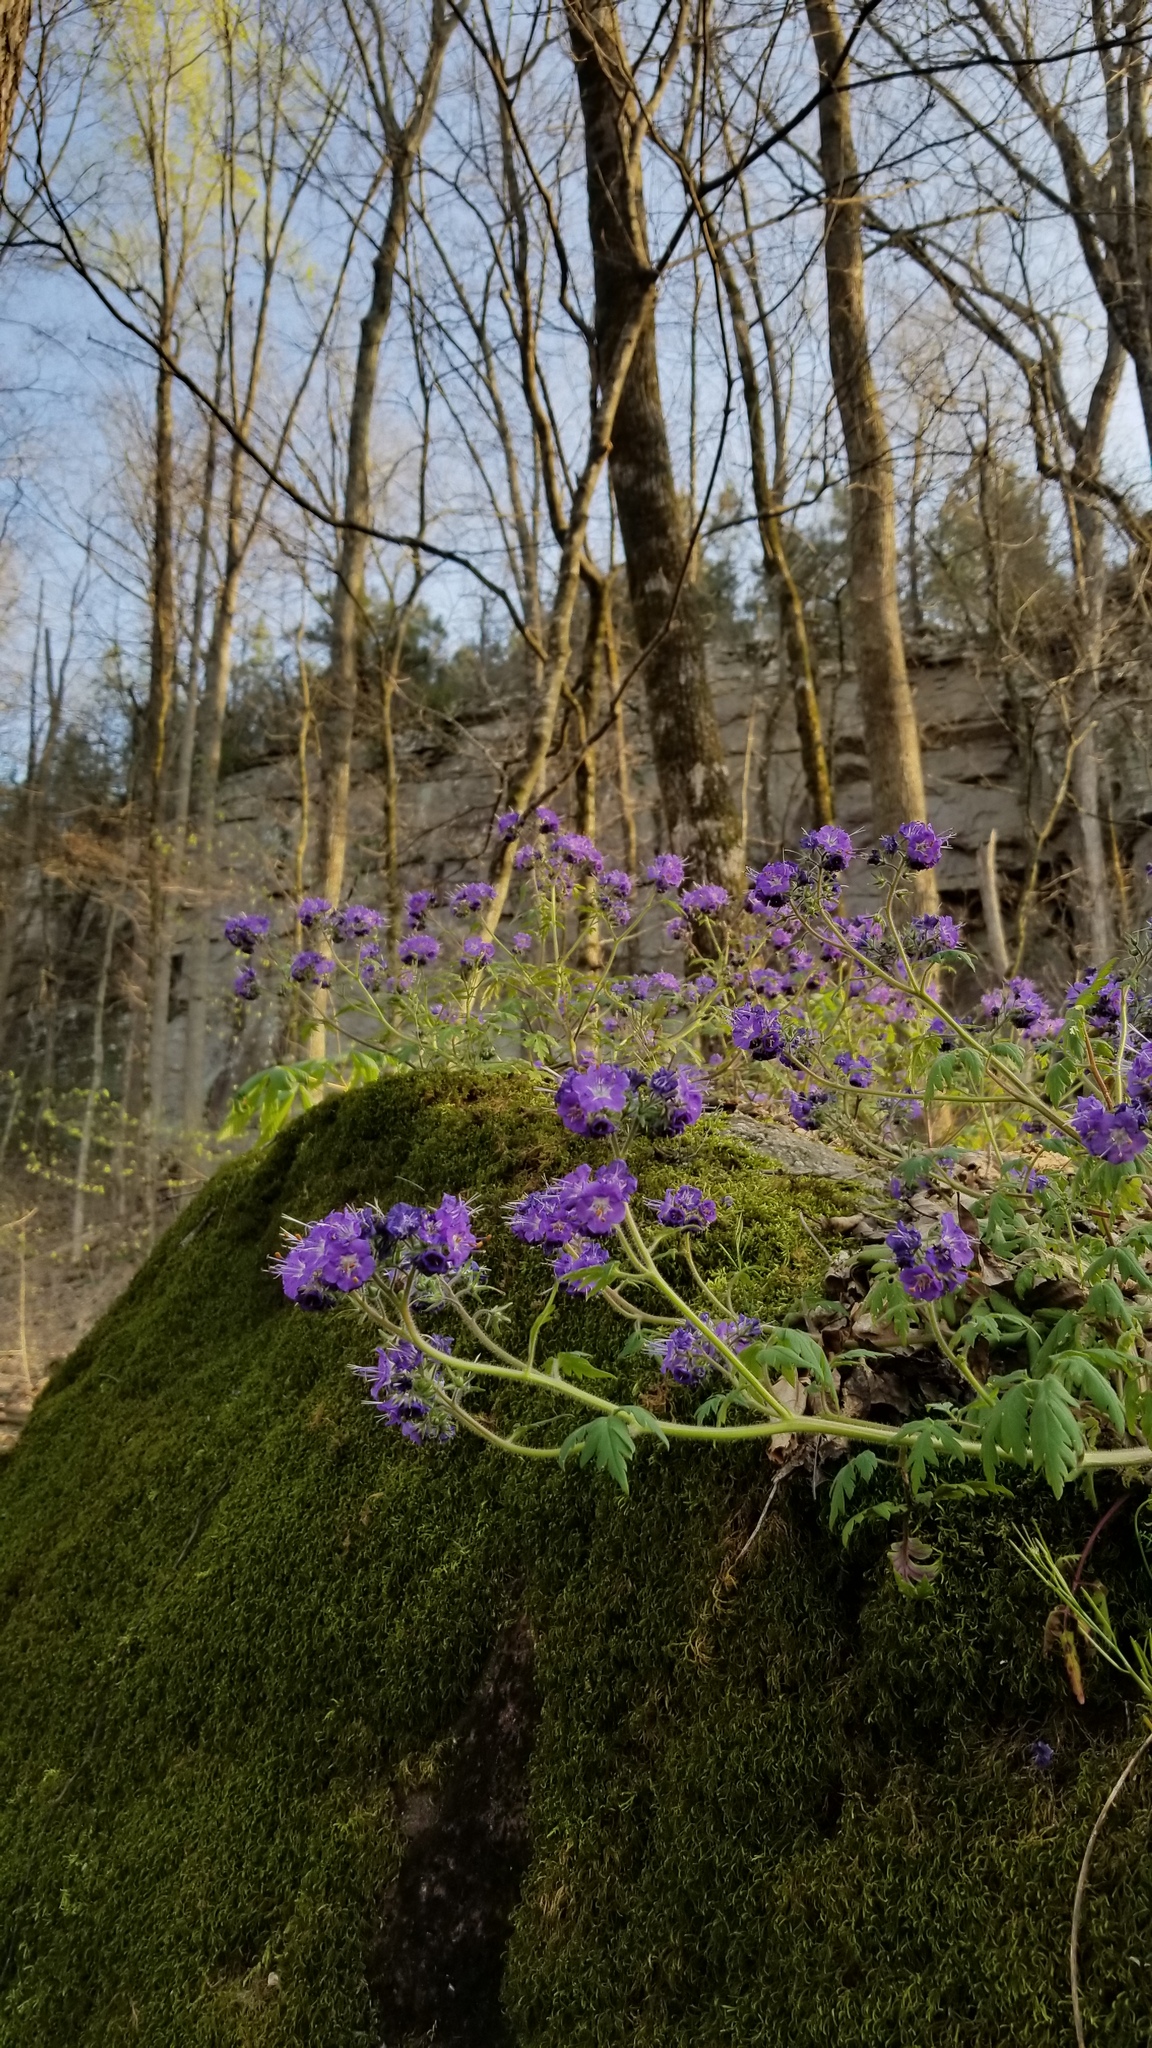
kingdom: Plantae
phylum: Tracheophyta
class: Magnoliopsida
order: Boraginales
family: Hydrophyllaceae
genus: Phacelia
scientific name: Phacelia bipinnatifida
